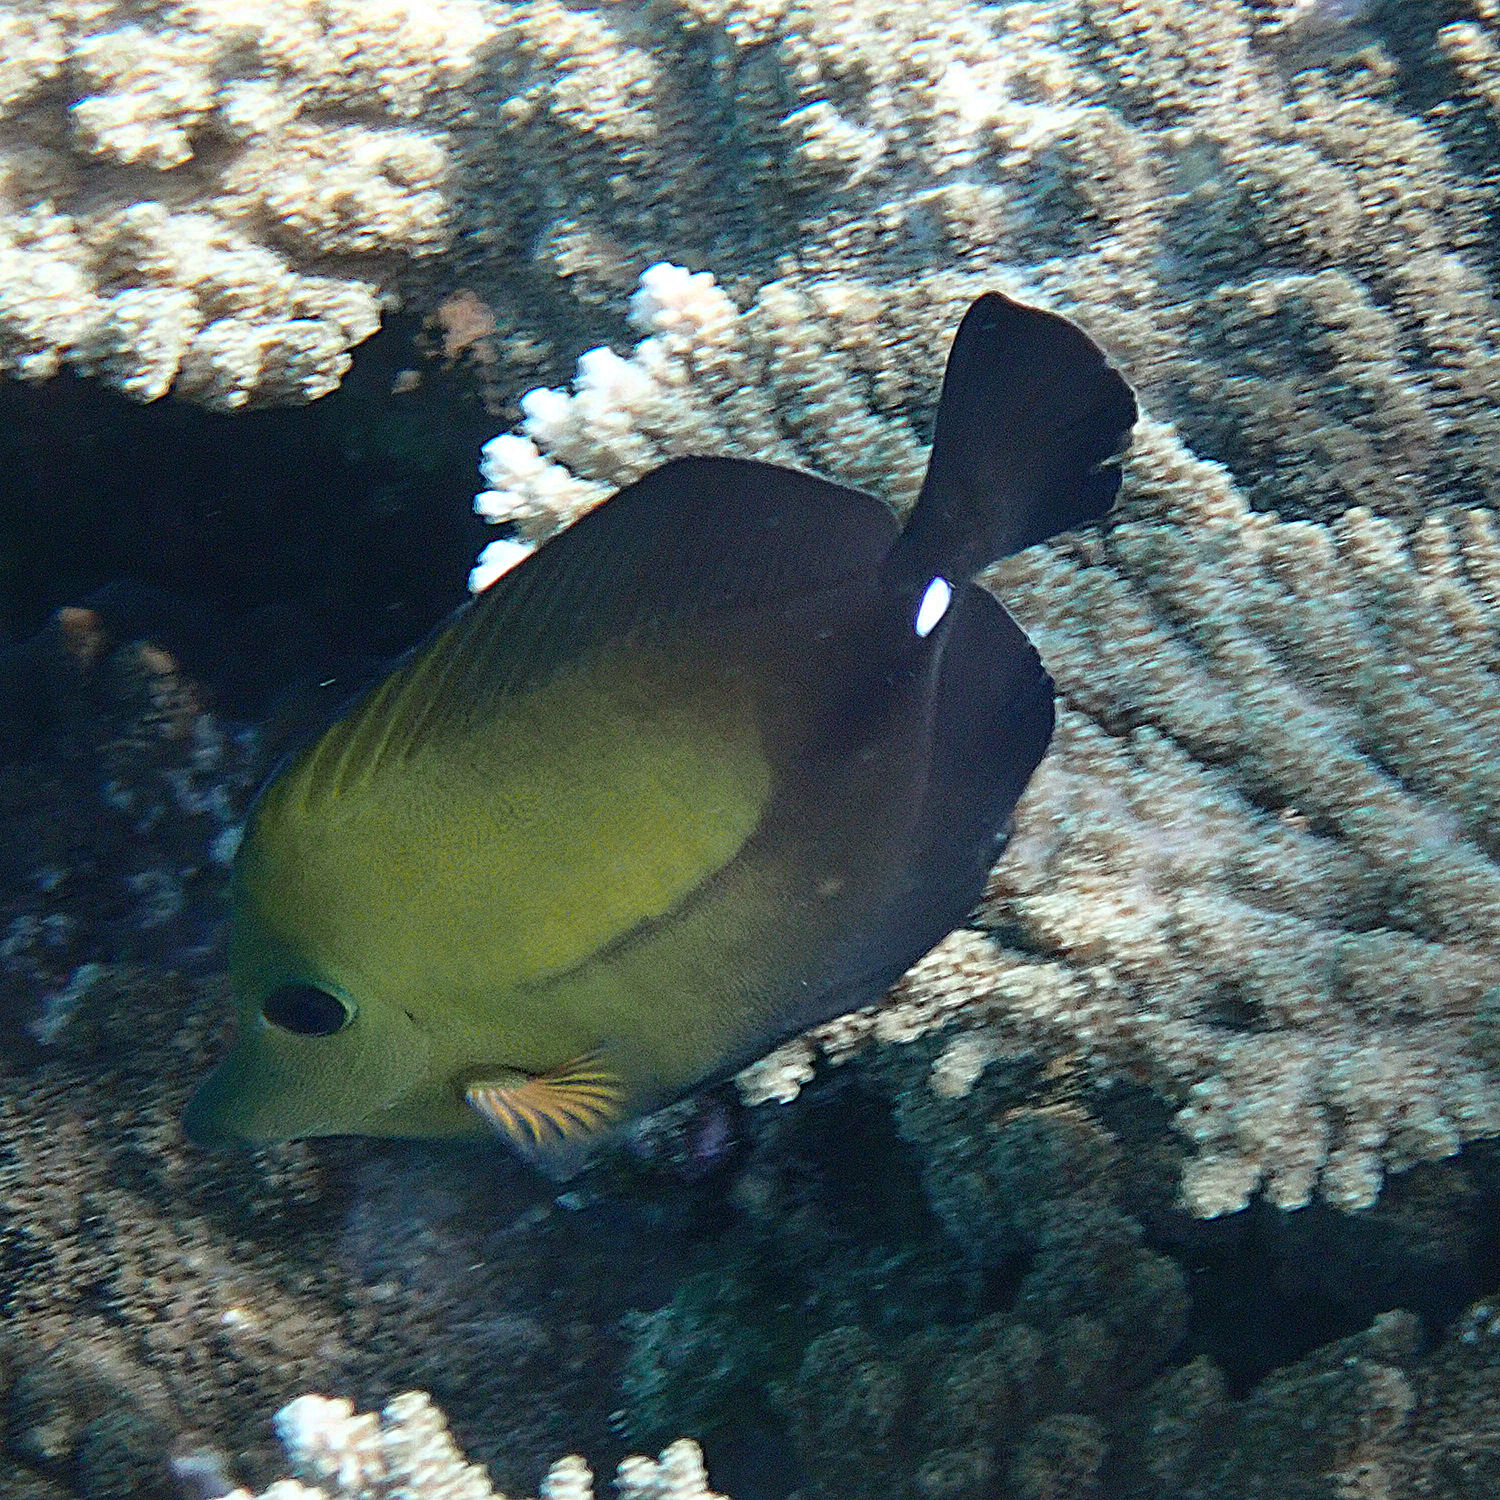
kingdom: Animalia
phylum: Chordata
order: Perciformes
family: Acanthuridae
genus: Zebrasoma
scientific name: Zebrasoma scopas
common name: Twotone tang
